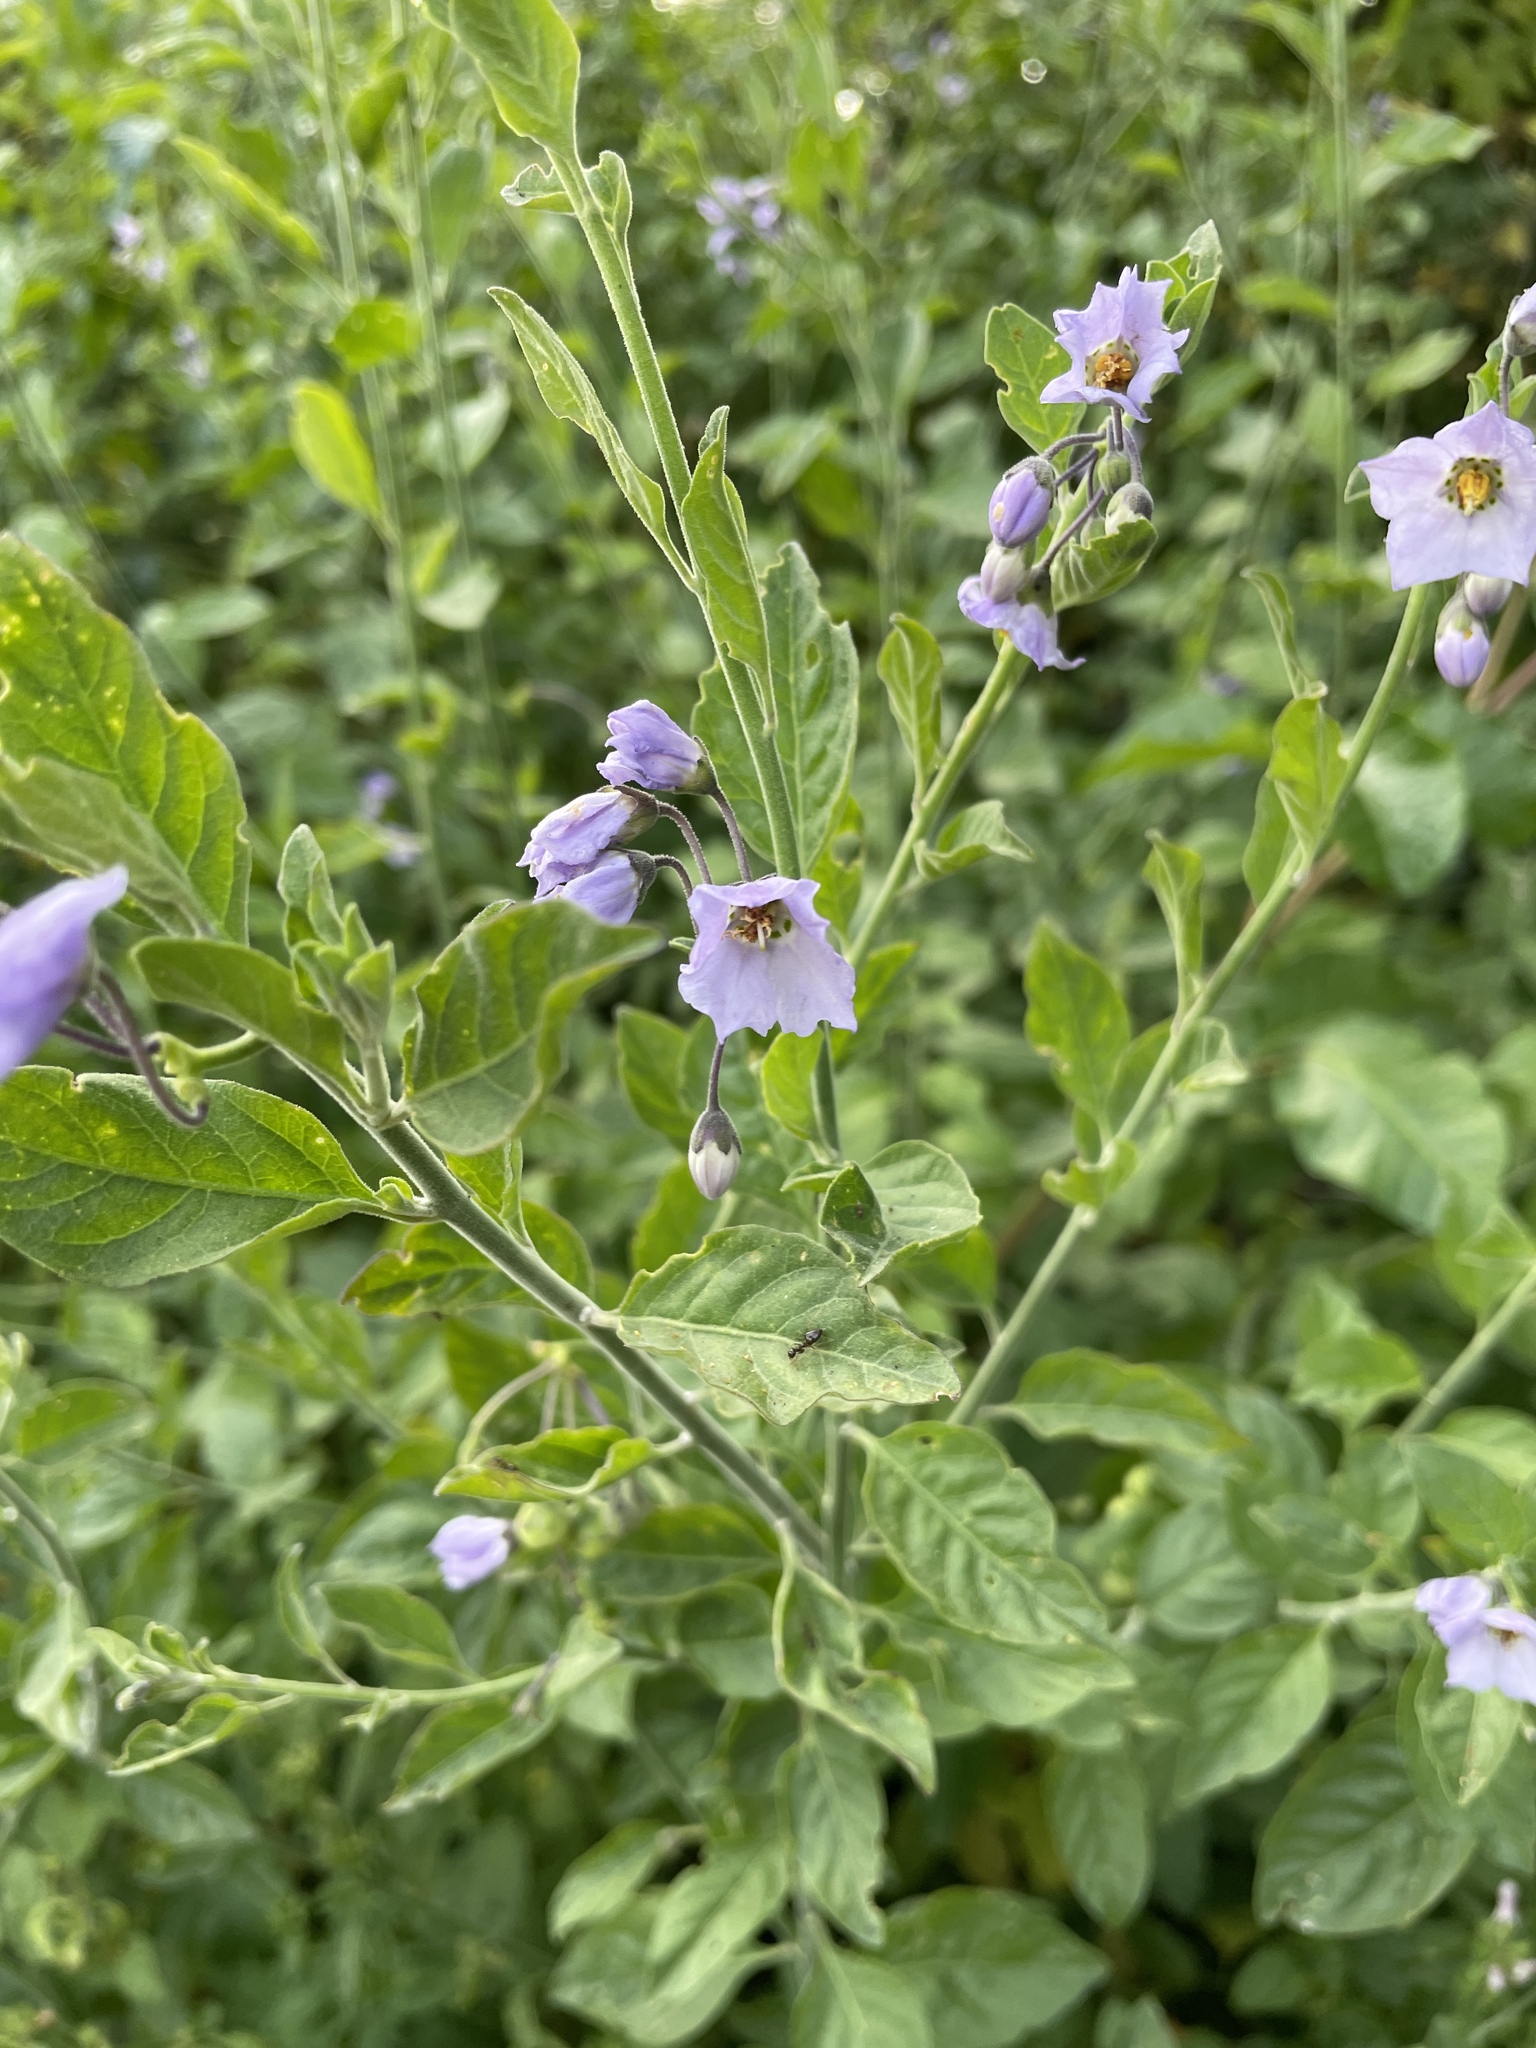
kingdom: Plantae
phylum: Tracheophyta
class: Magnoliopsida
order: Solanales
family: Solanaceae
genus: Solanum
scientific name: Solanum umbelliferum
